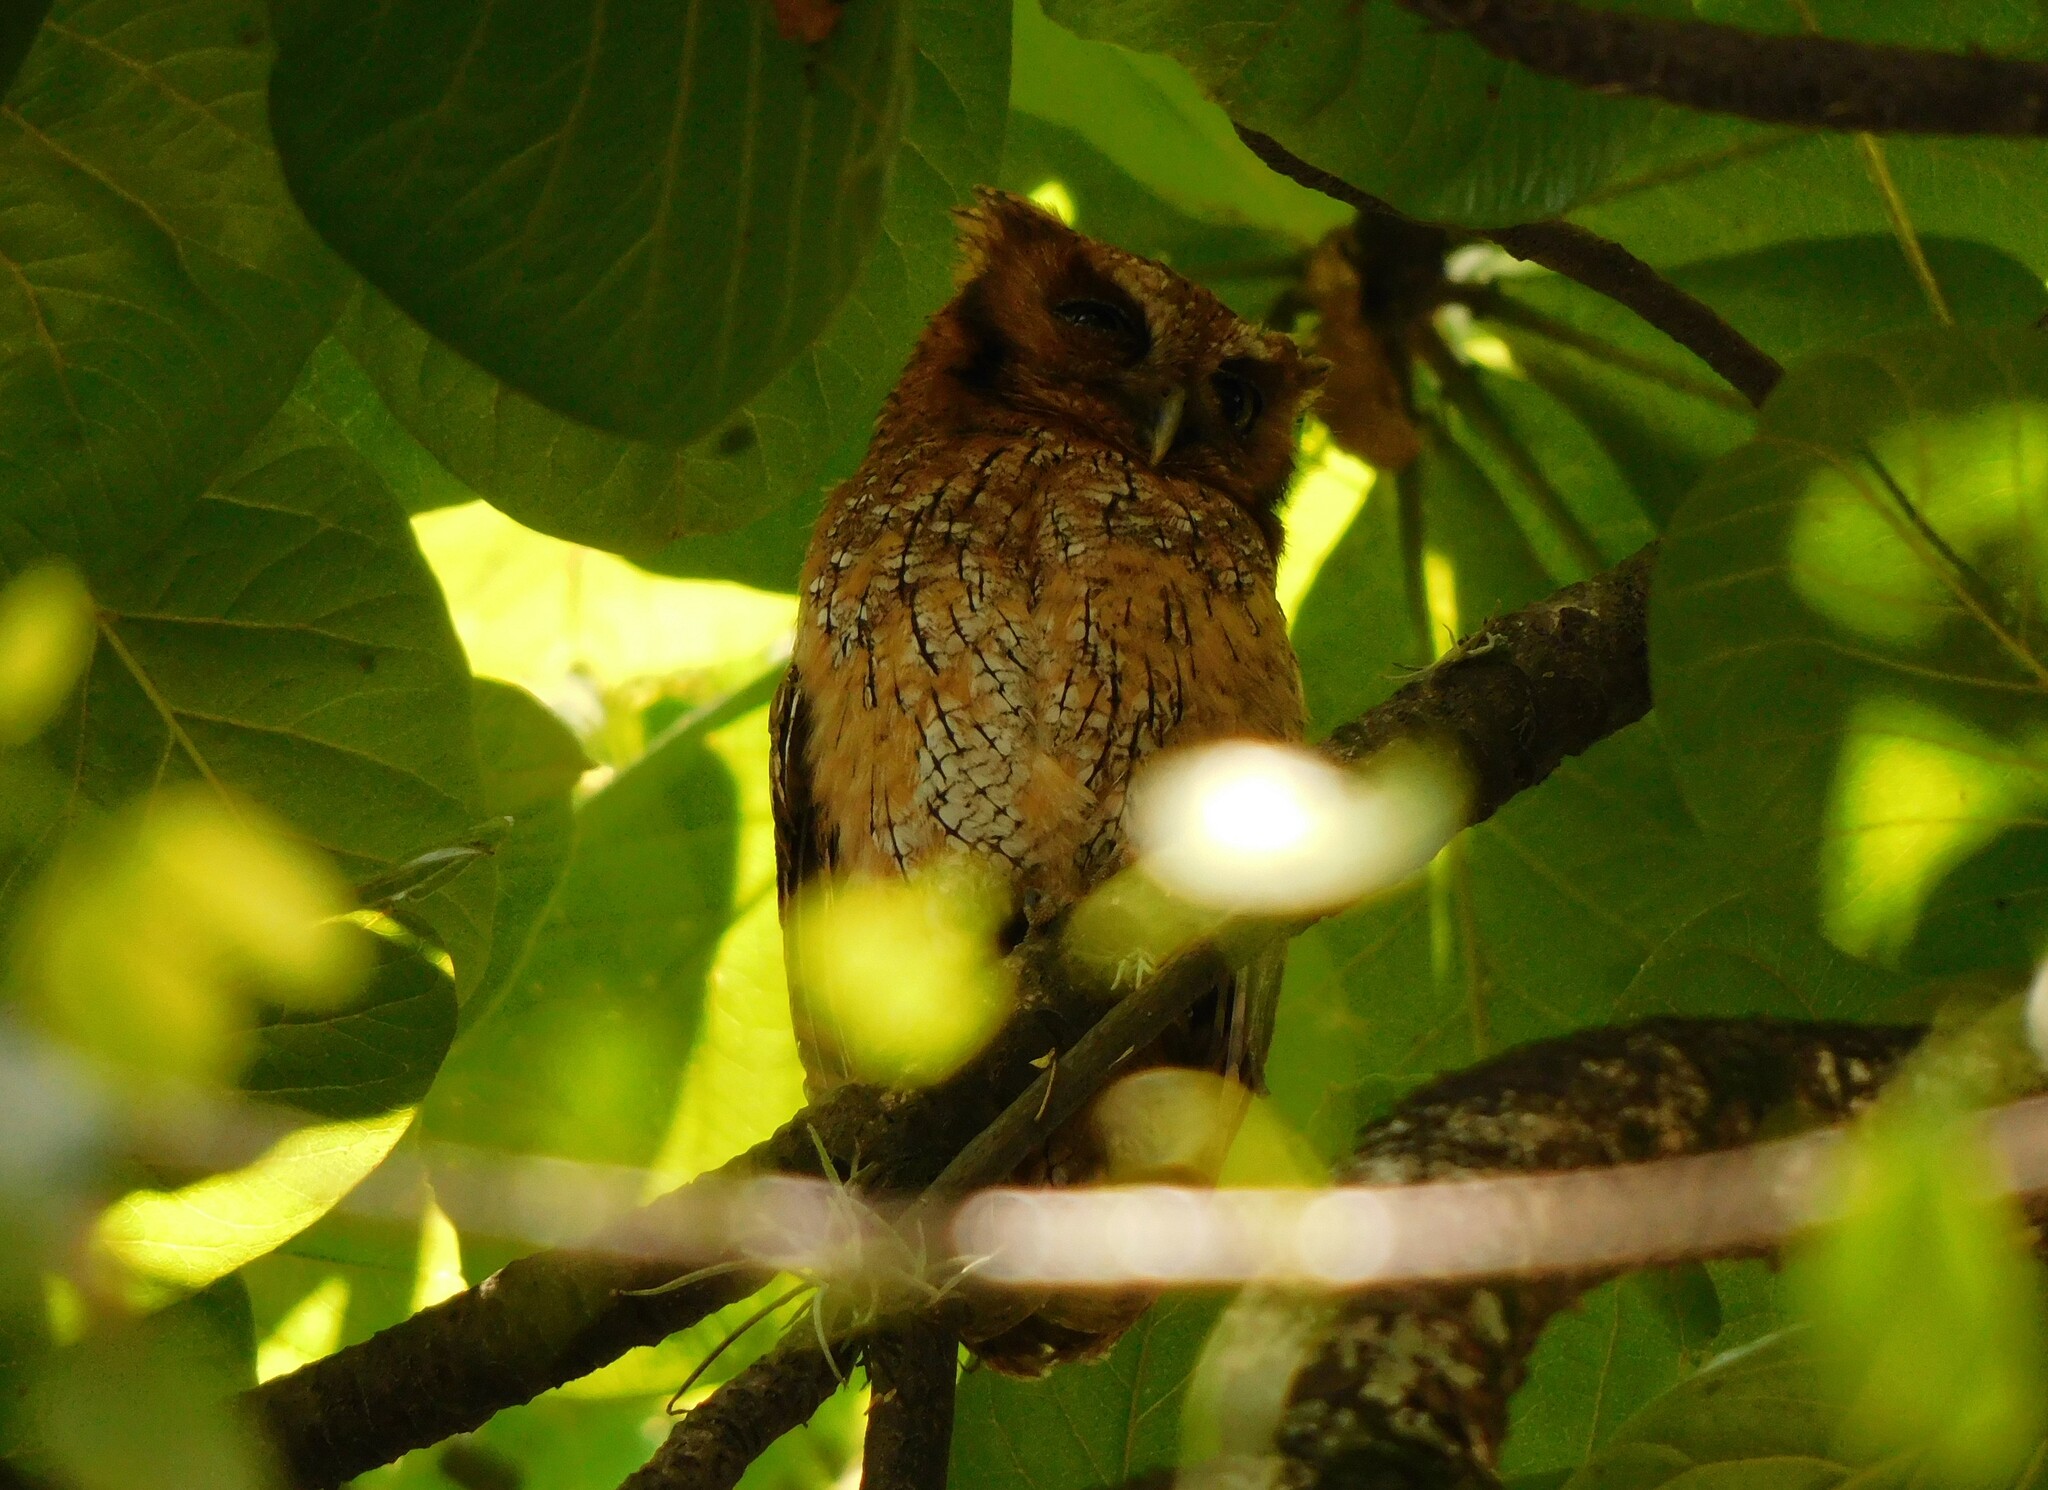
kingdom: Animalia
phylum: Chordata
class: Aves
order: Strigiformes
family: Strigidae
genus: Megascops
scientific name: Megascops choliba
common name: Tropical screech-owl
